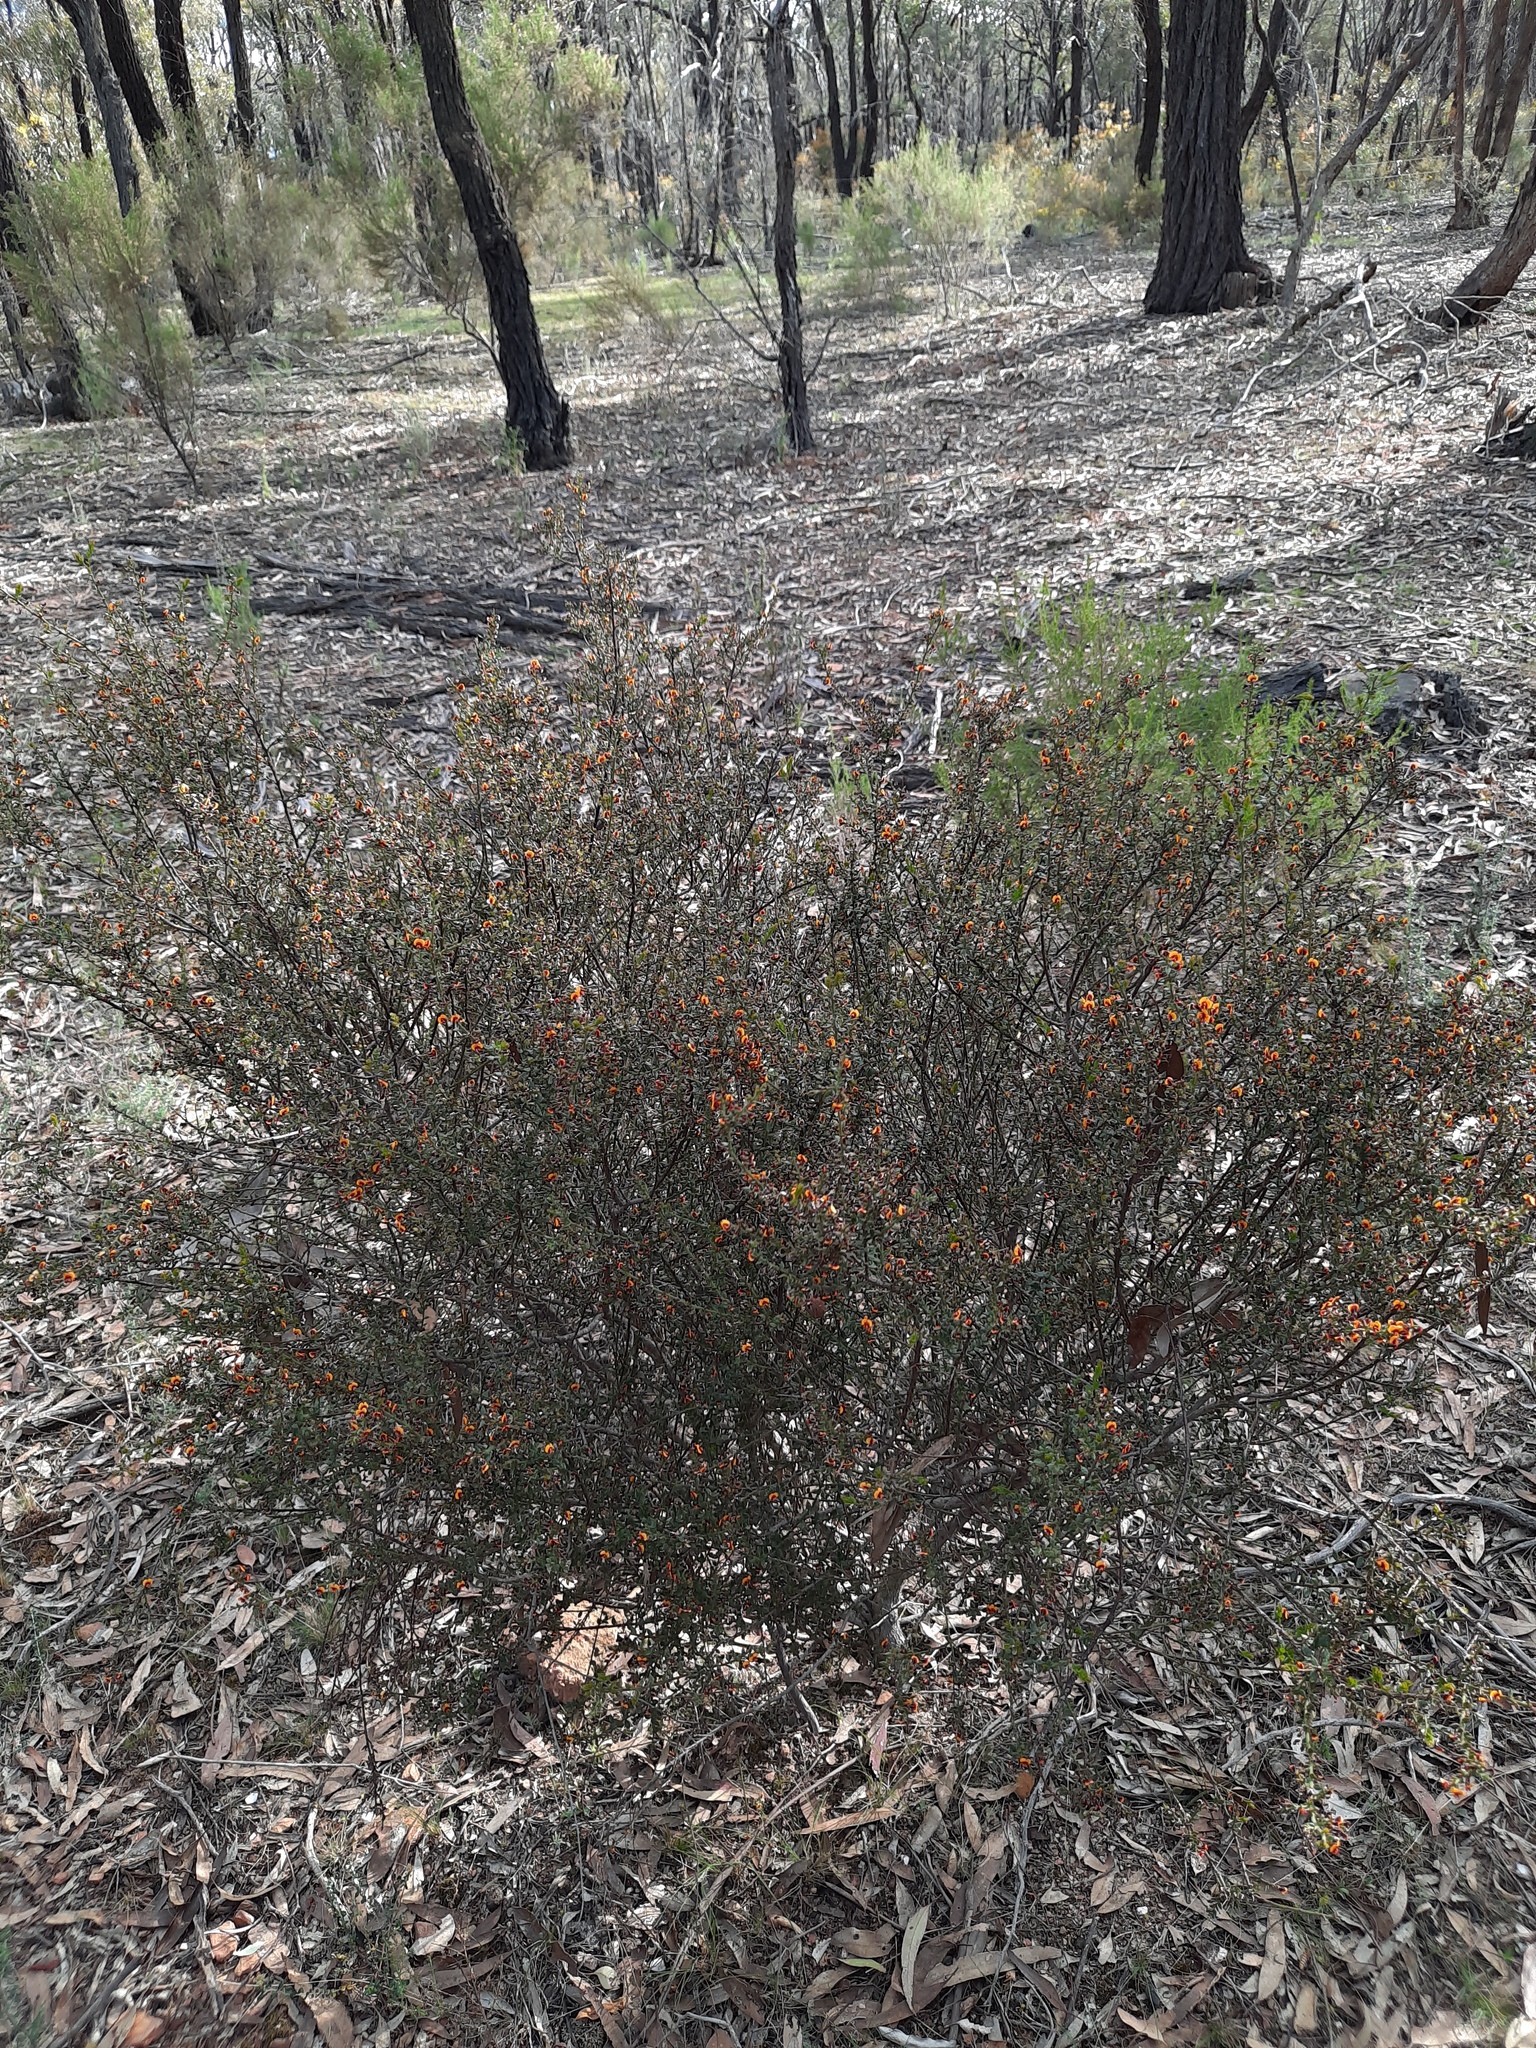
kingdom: Plantae
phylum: Tracheophyta
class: Magnoliopsida
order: Fabales
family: Fabaceae
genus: Daviesia
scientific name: Daviesia ulicifolia
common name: Gorse bitter-pea
